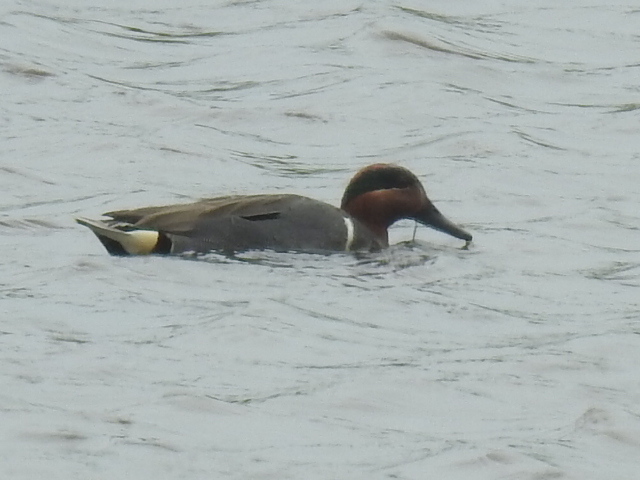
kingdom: Animalia
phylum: Chordata
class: Aves
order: Anseriformes
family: Anatidae
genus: Anas
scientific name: Anas carolinensis
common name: Green-winged teal
